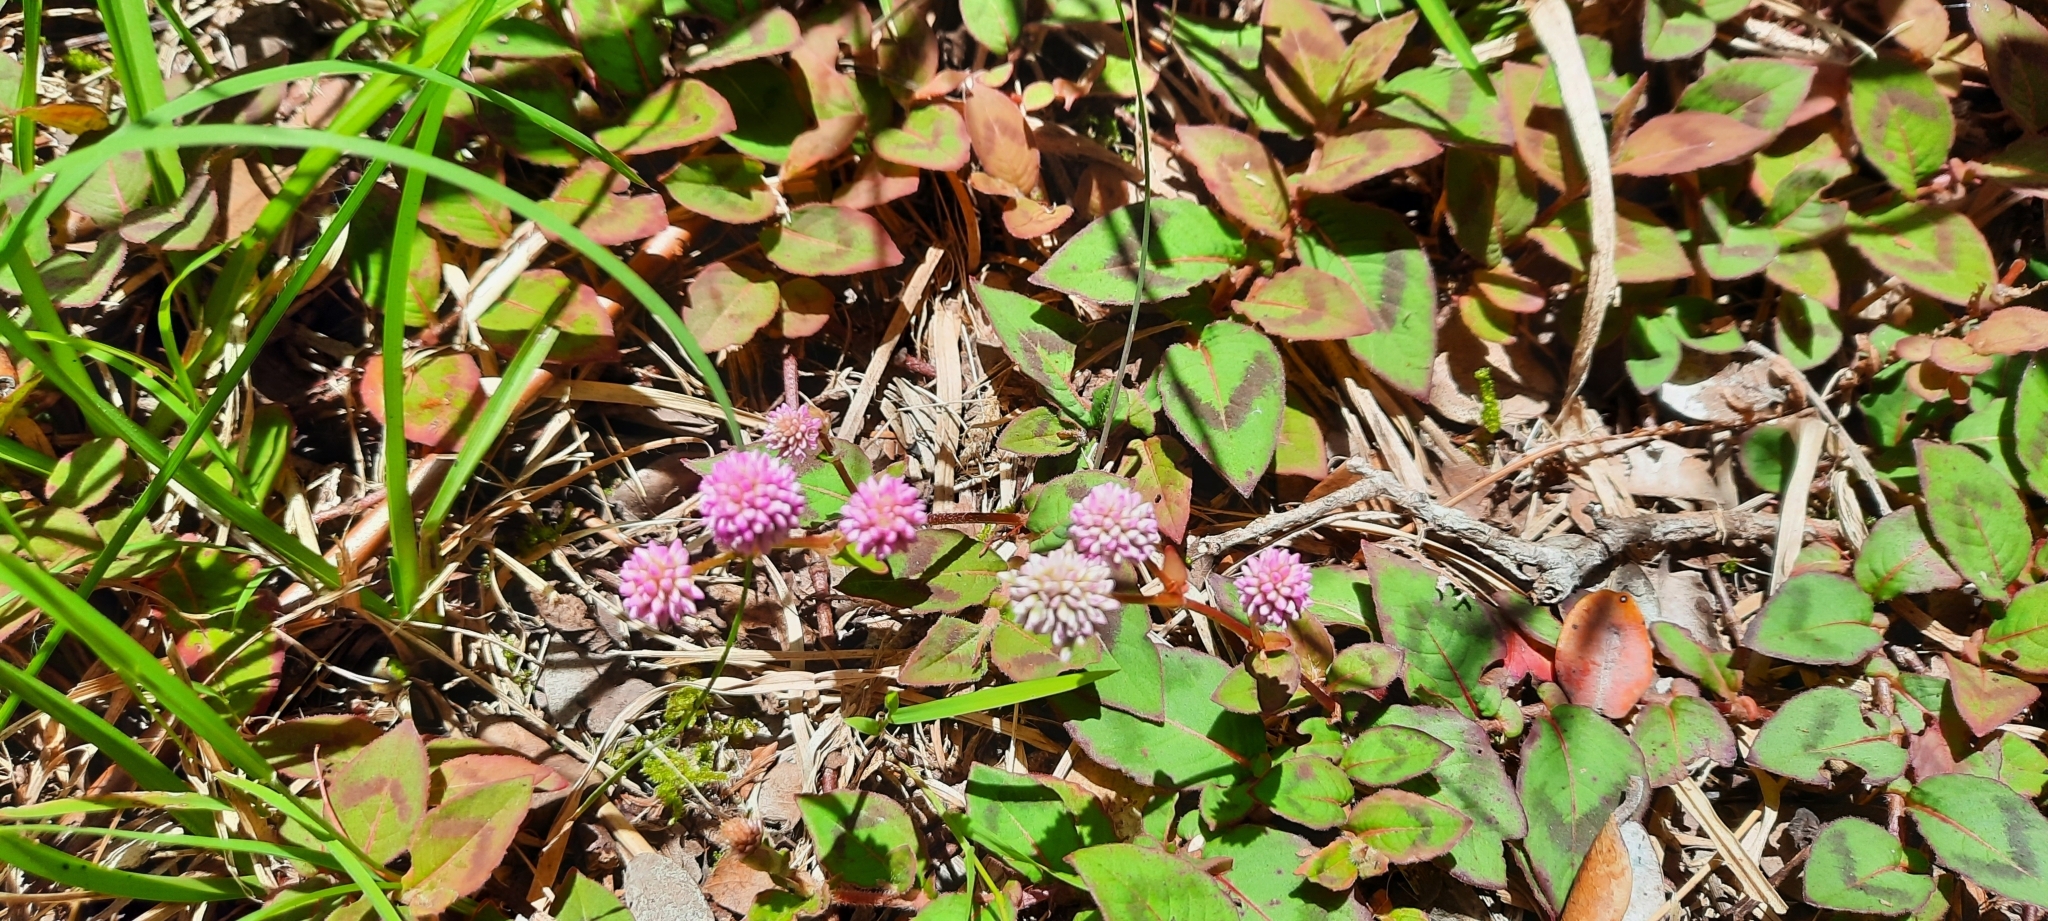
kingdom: Plantae
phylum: Tracheophyta
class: Magnoliopsida
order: Caryophyllales
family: Polygonaceae
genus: Persicaria
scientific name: Persicaria capitata
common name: Pinkhead smartweed
